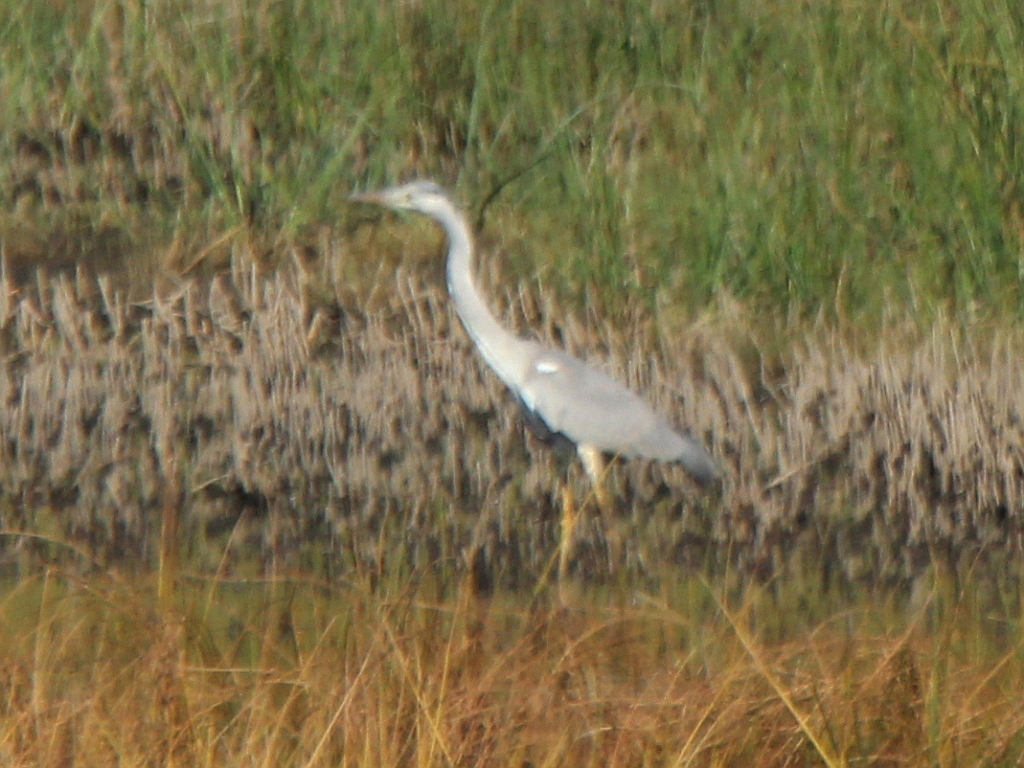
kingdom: Animalia
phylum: Chordata
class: Aves
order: Pelecaniformes
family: Ardeidae
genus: Ardea
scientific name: Ardea cinerea
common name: Grey heron
